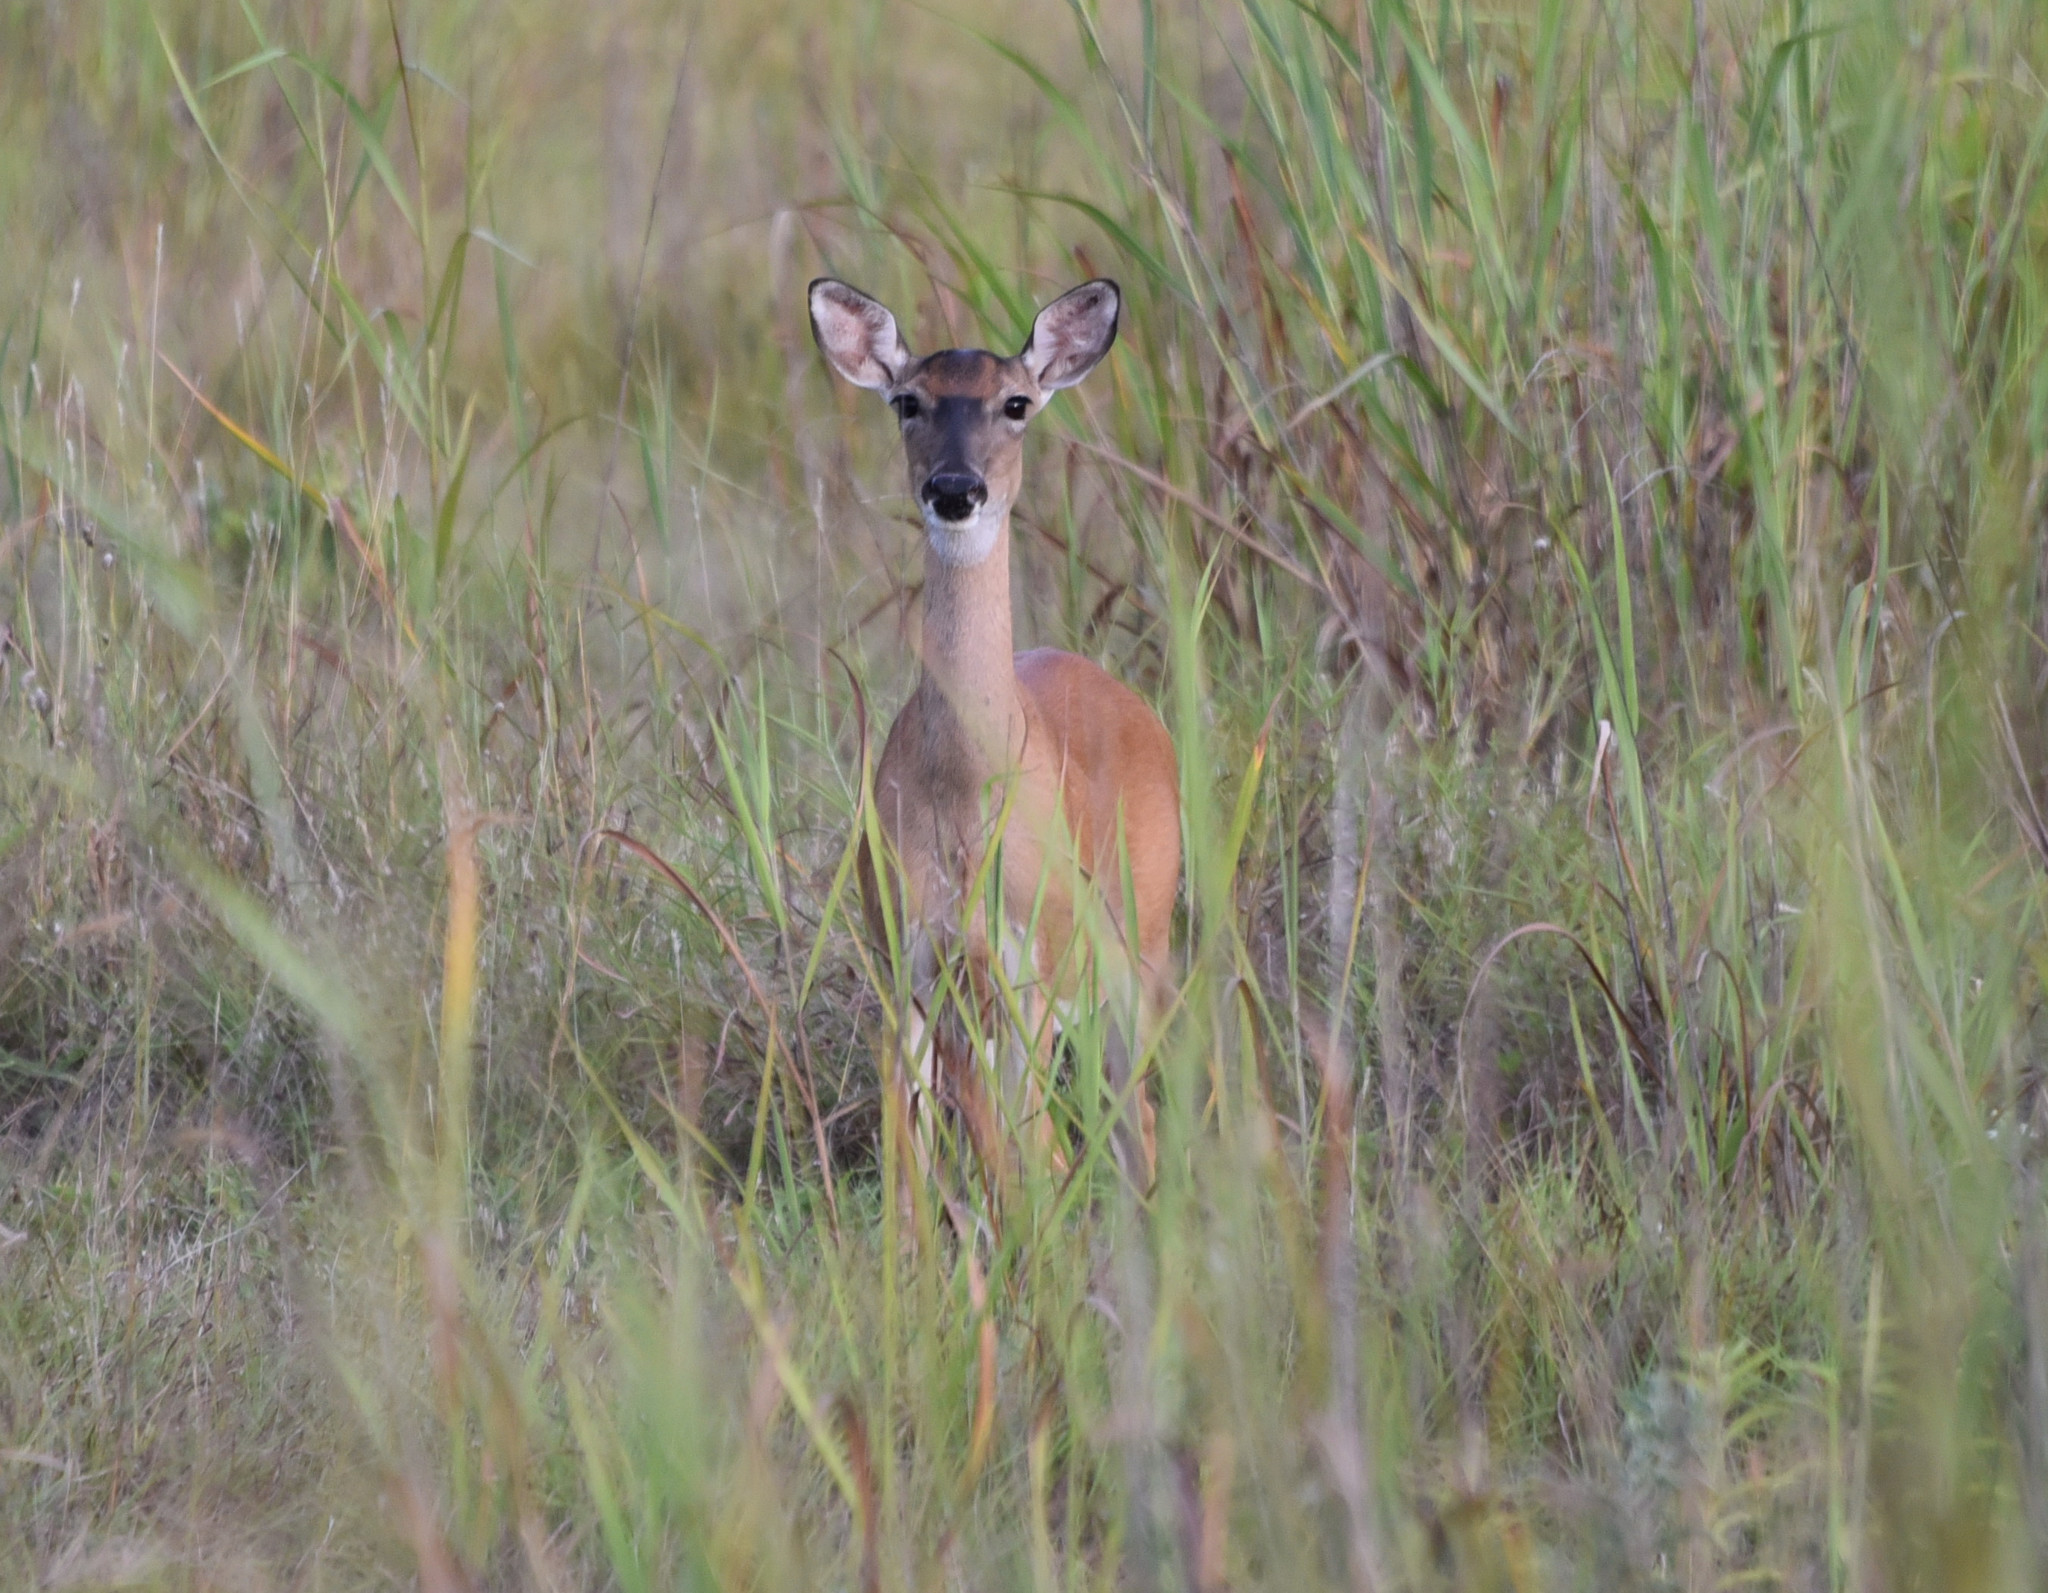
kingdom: Animalia
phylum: Chordata
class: Mammalia
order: Artiodactyla
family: Cervidae
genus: Odocoileus
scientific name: Odocoileus virginianus
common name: White-tailed deer
